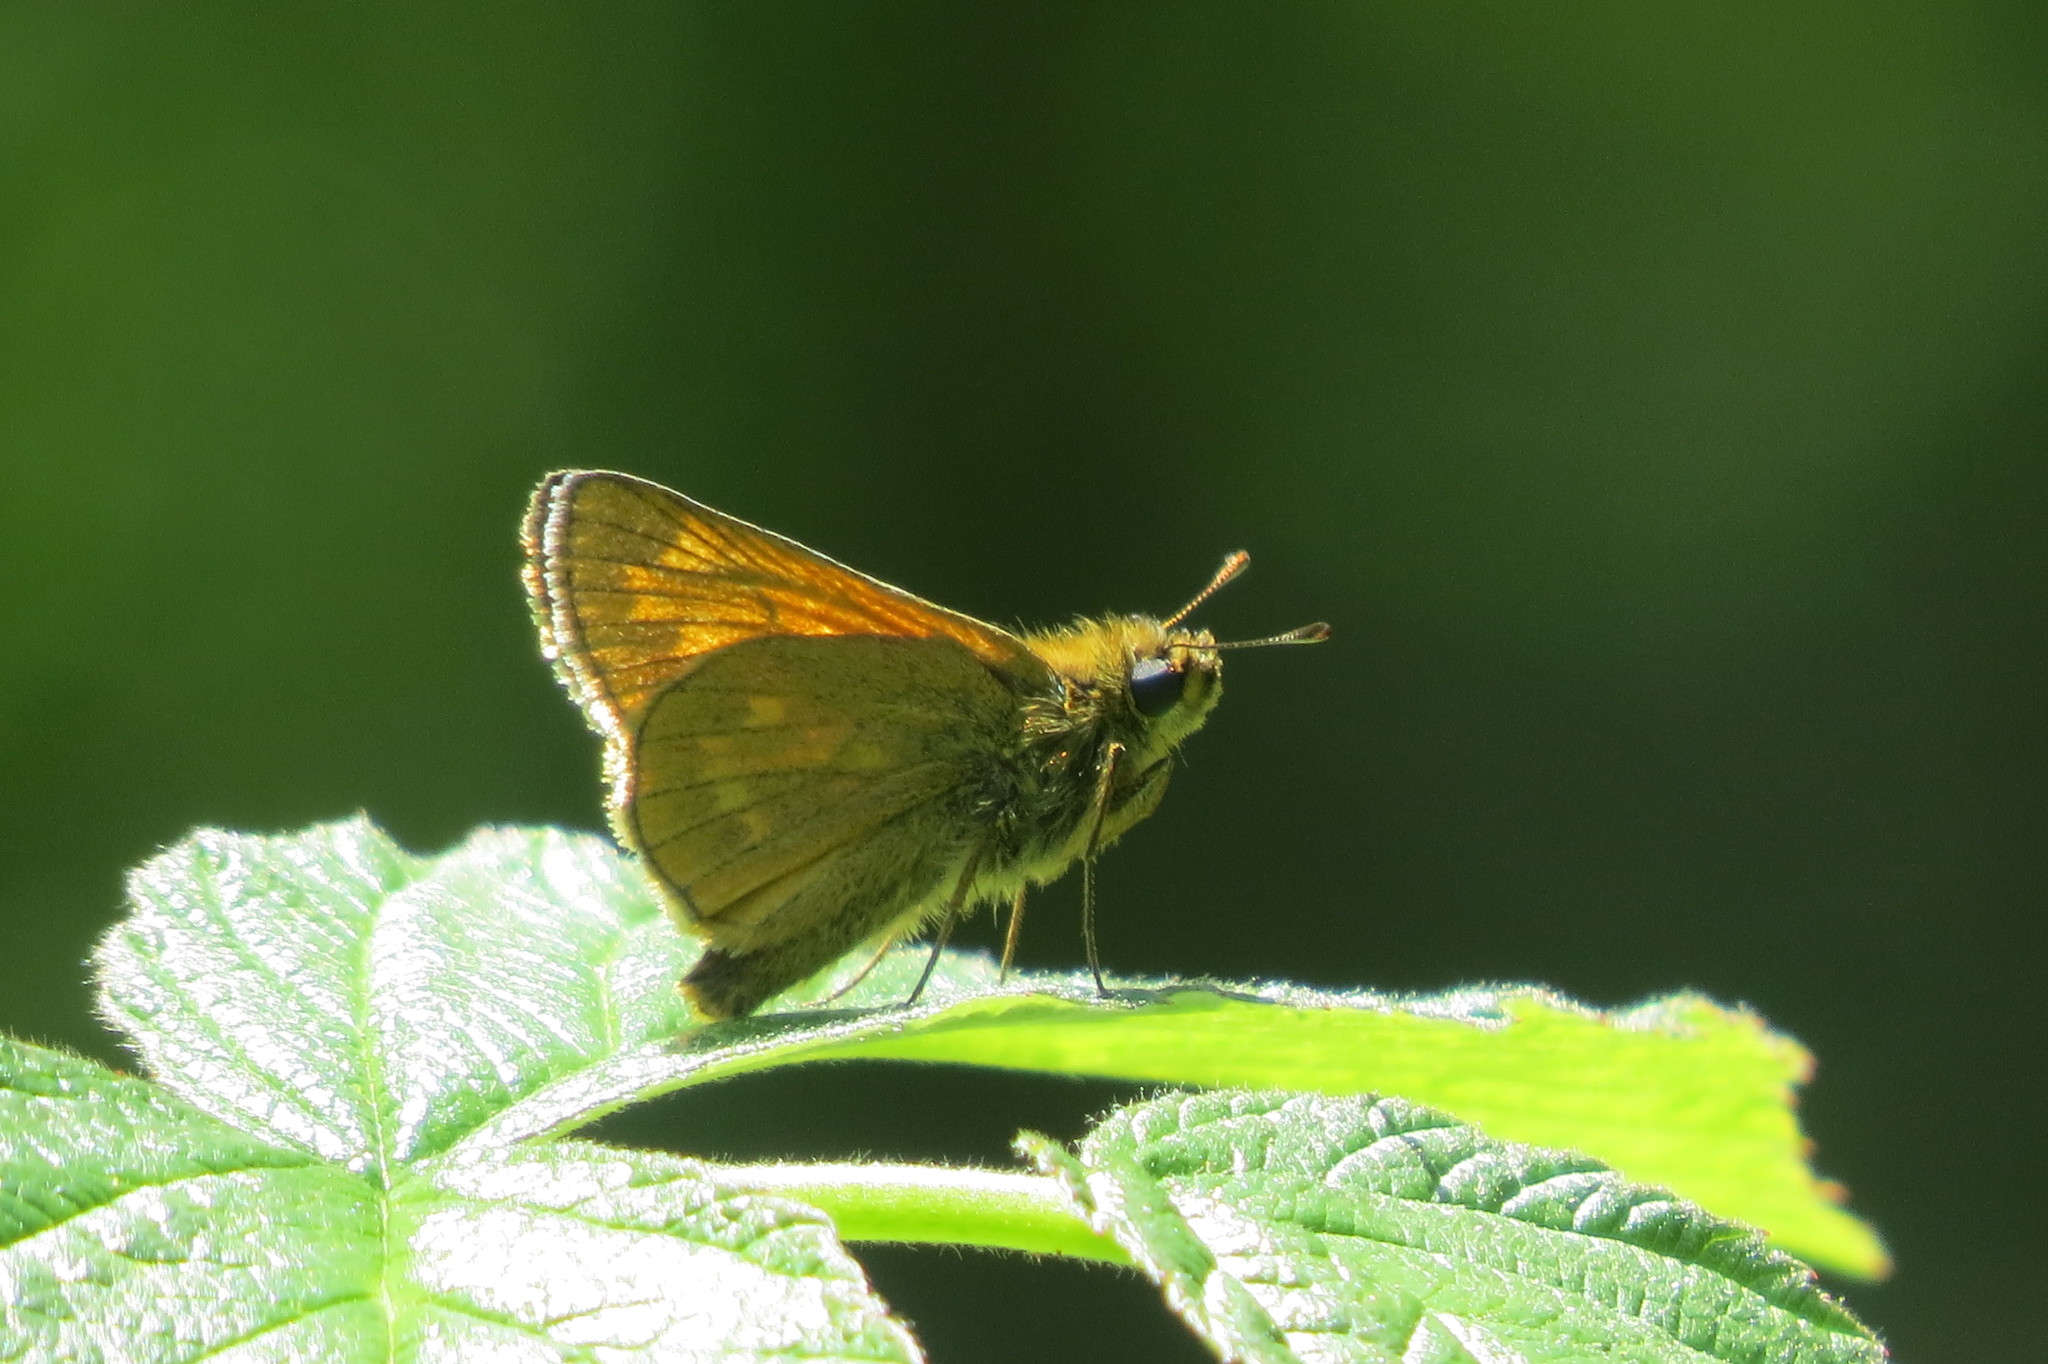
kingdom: Animalia
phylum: Arthropoda
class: Insecta
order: Lepidoptera
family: Hesperiidae
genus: Ochlodes
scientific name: Ochlodes venata
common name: Large skipper
